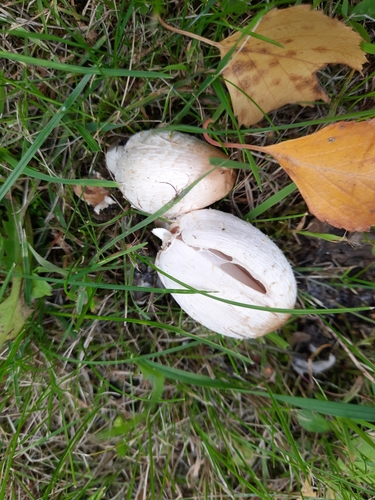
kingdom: Fungi
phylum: Basidiomycota
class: Agaricomycetes
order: Agaricales
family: Agaricaceae
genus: Coprinus
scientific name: Coprinus comatus
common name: Lawyer's wig
